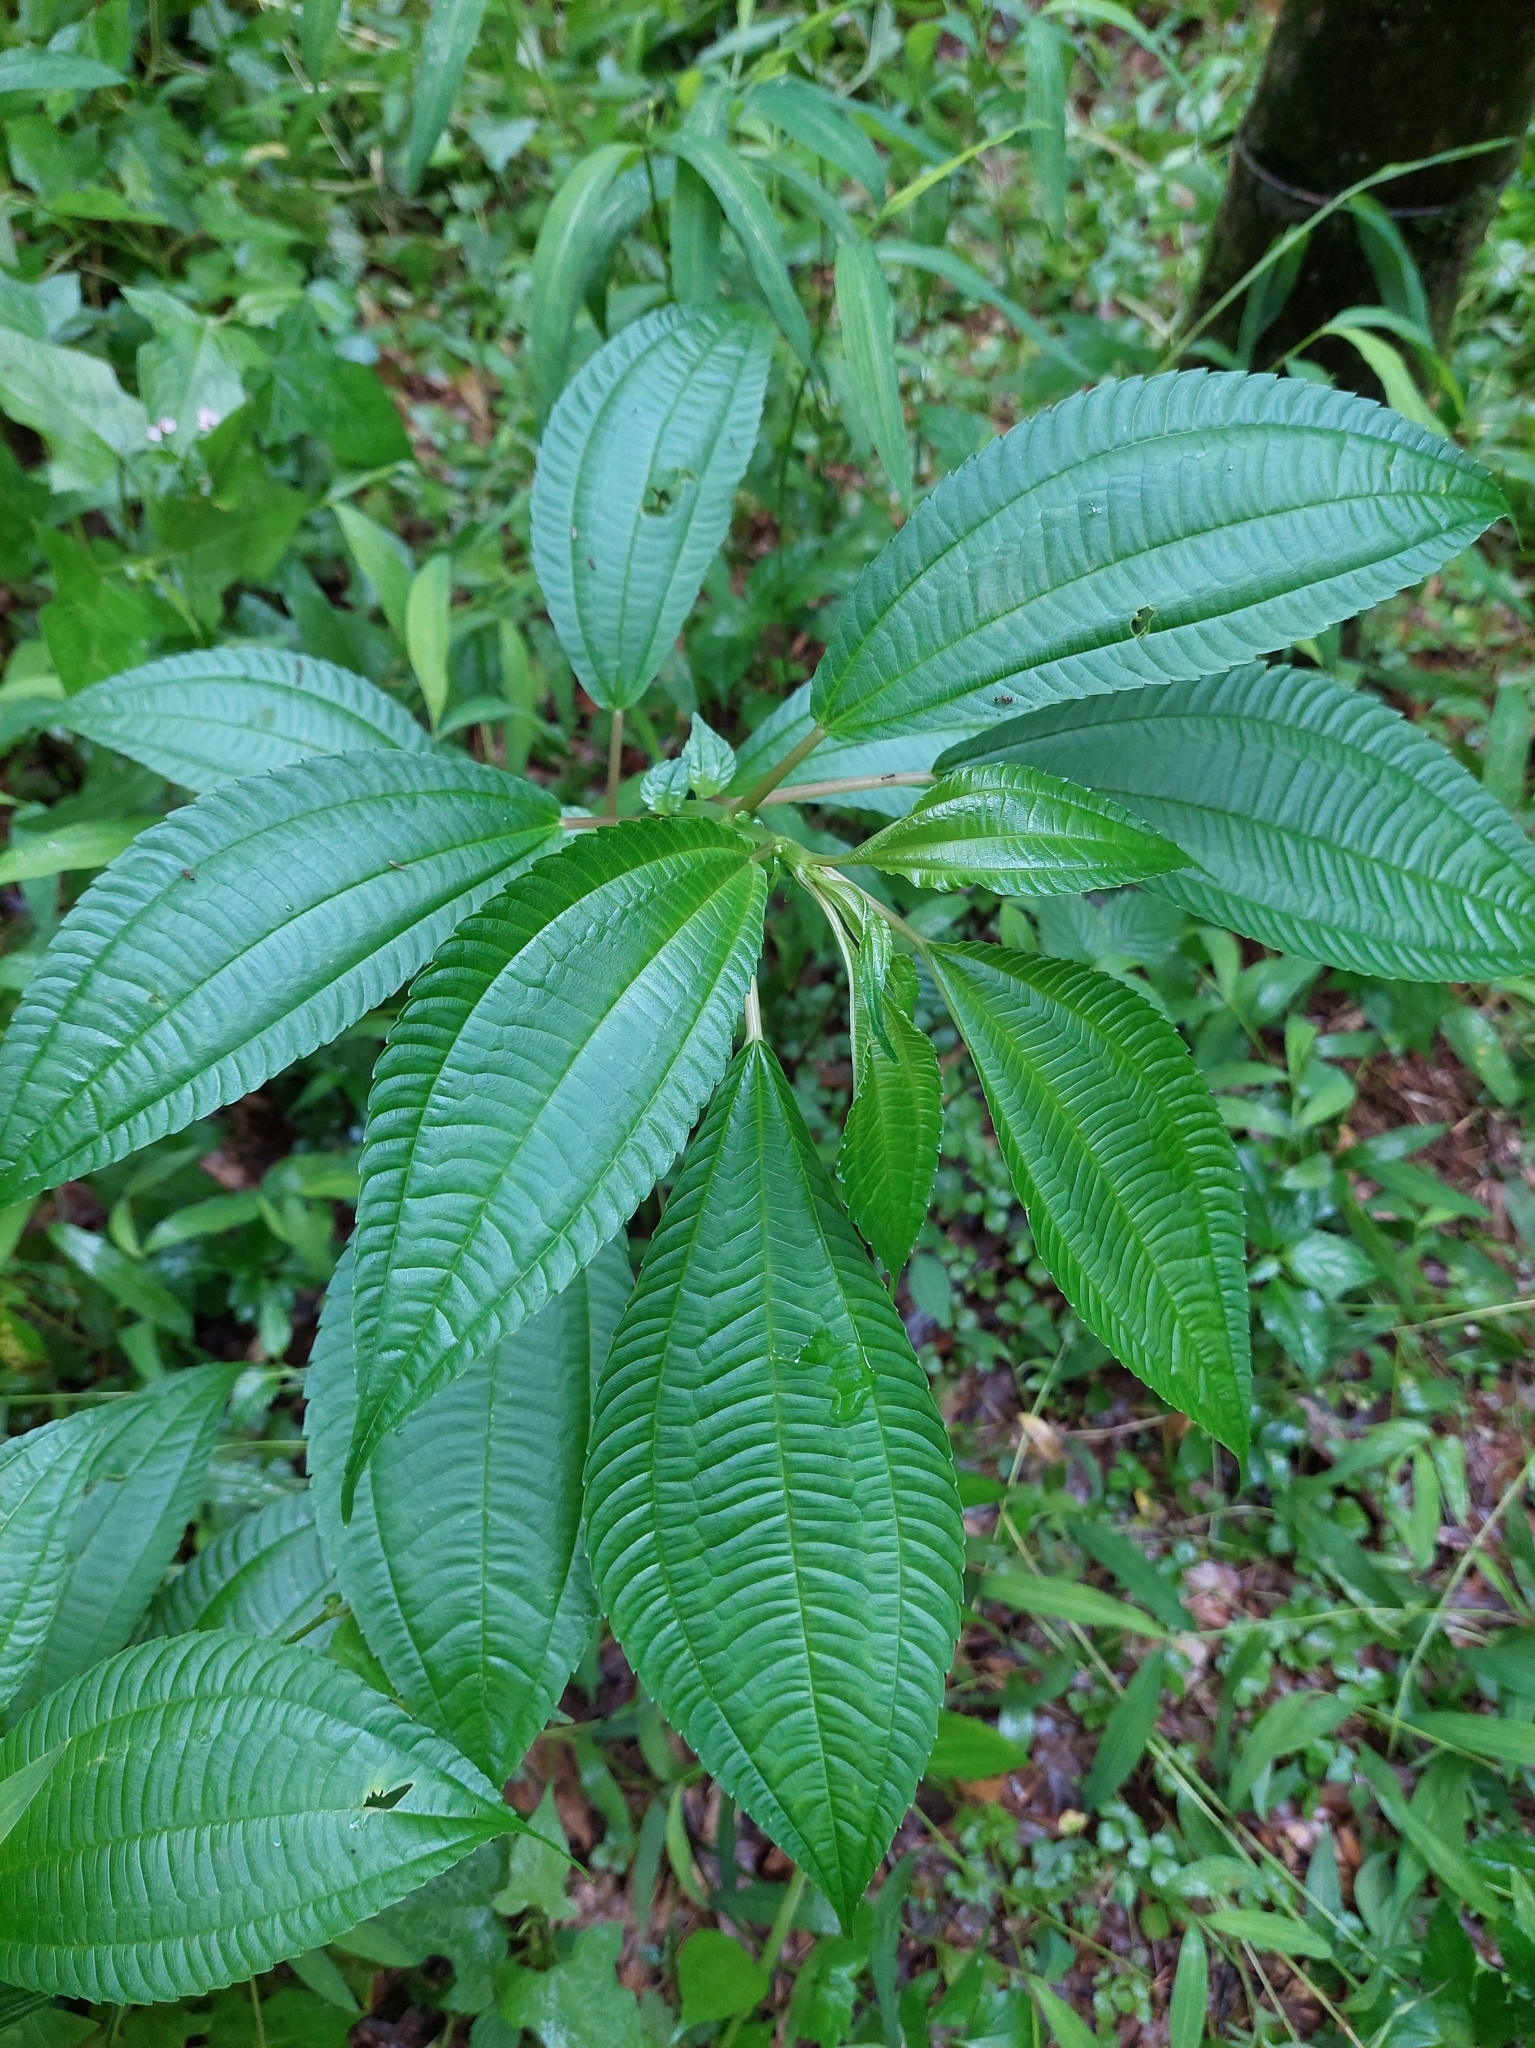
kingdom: Plantae
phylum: Tracheophyta
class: Magnoliopsida
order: Rosales
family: Urticaceae
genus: Pilea
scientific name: Pilea melastomoides
